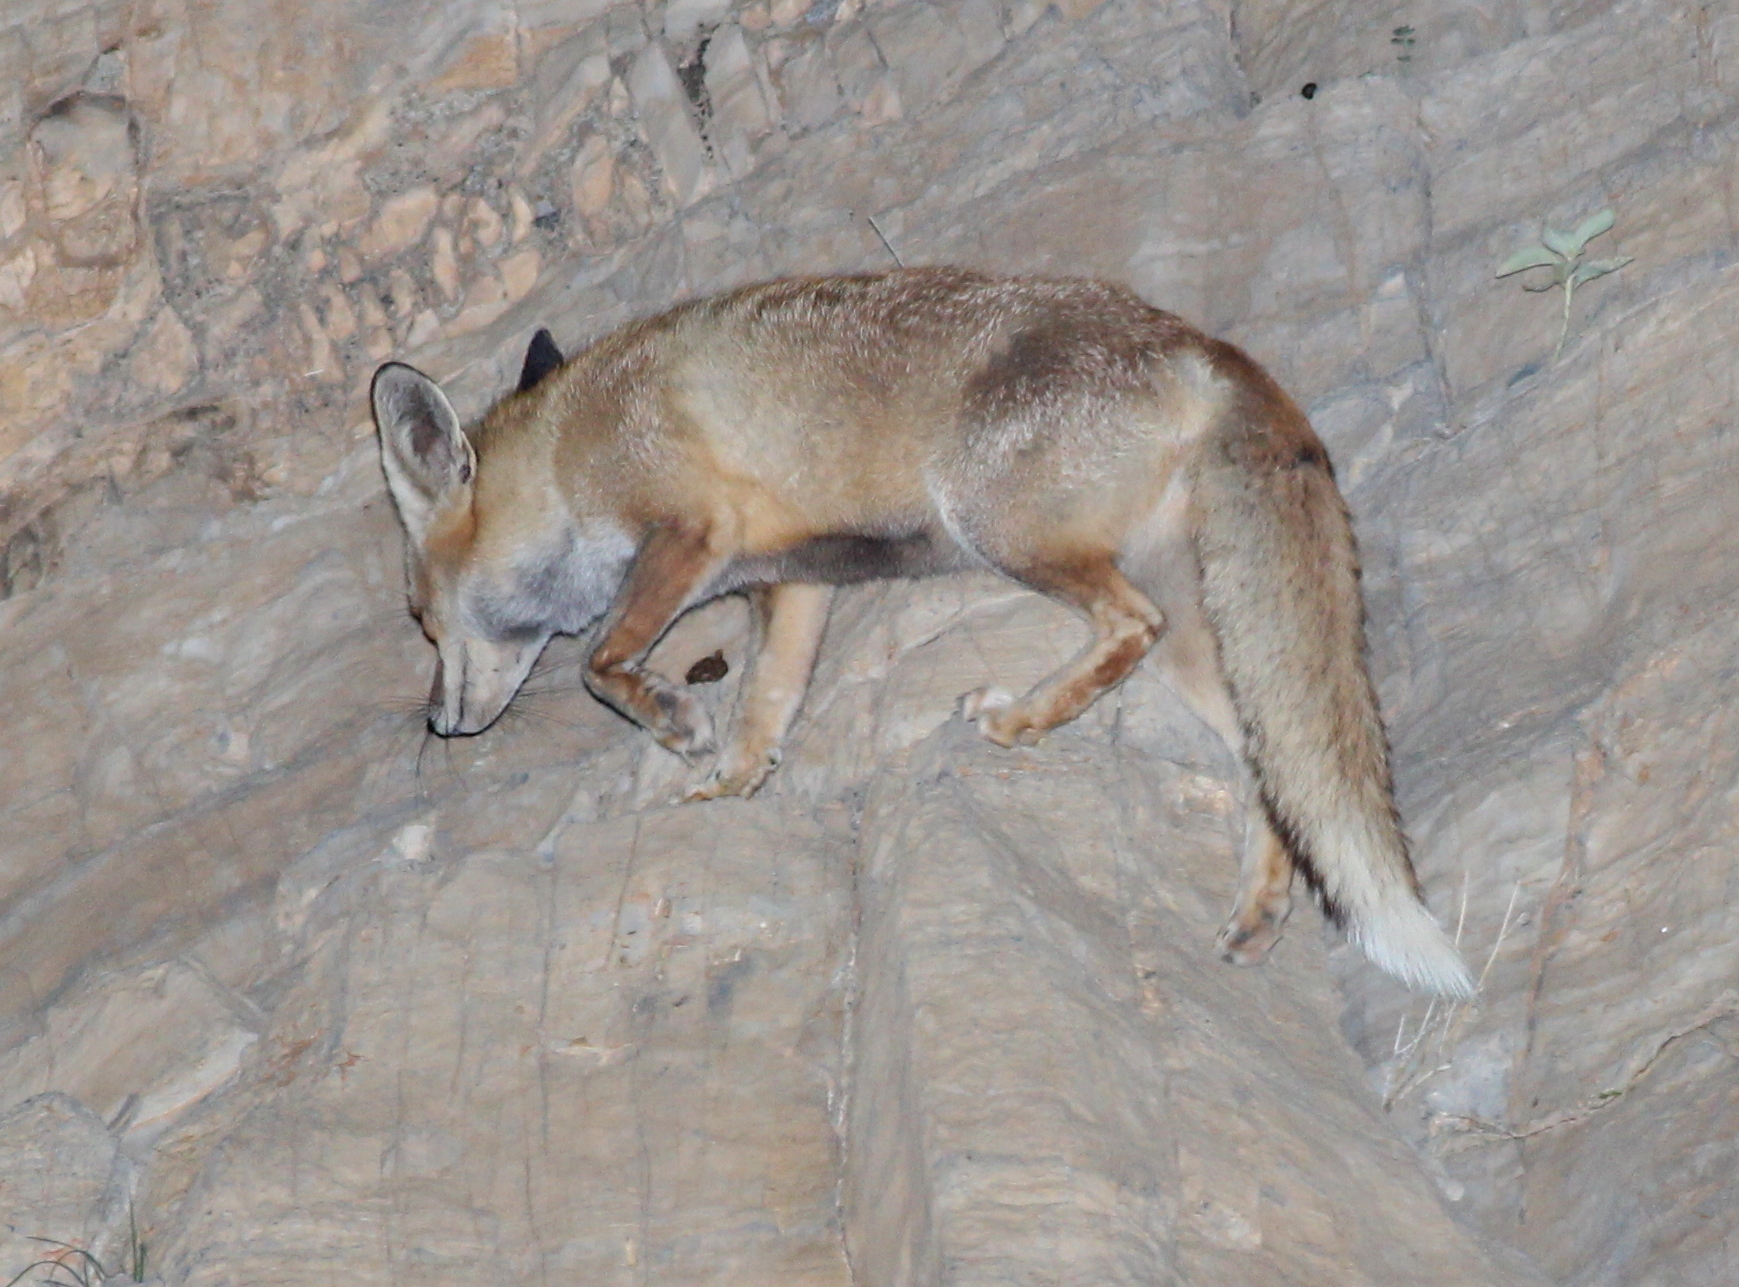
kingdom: Animalia
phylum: Chordata
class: Mammalia
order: Carnivora
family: Canidae
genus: Vulpes
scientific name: Vulpes vulpes
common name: Red fox
